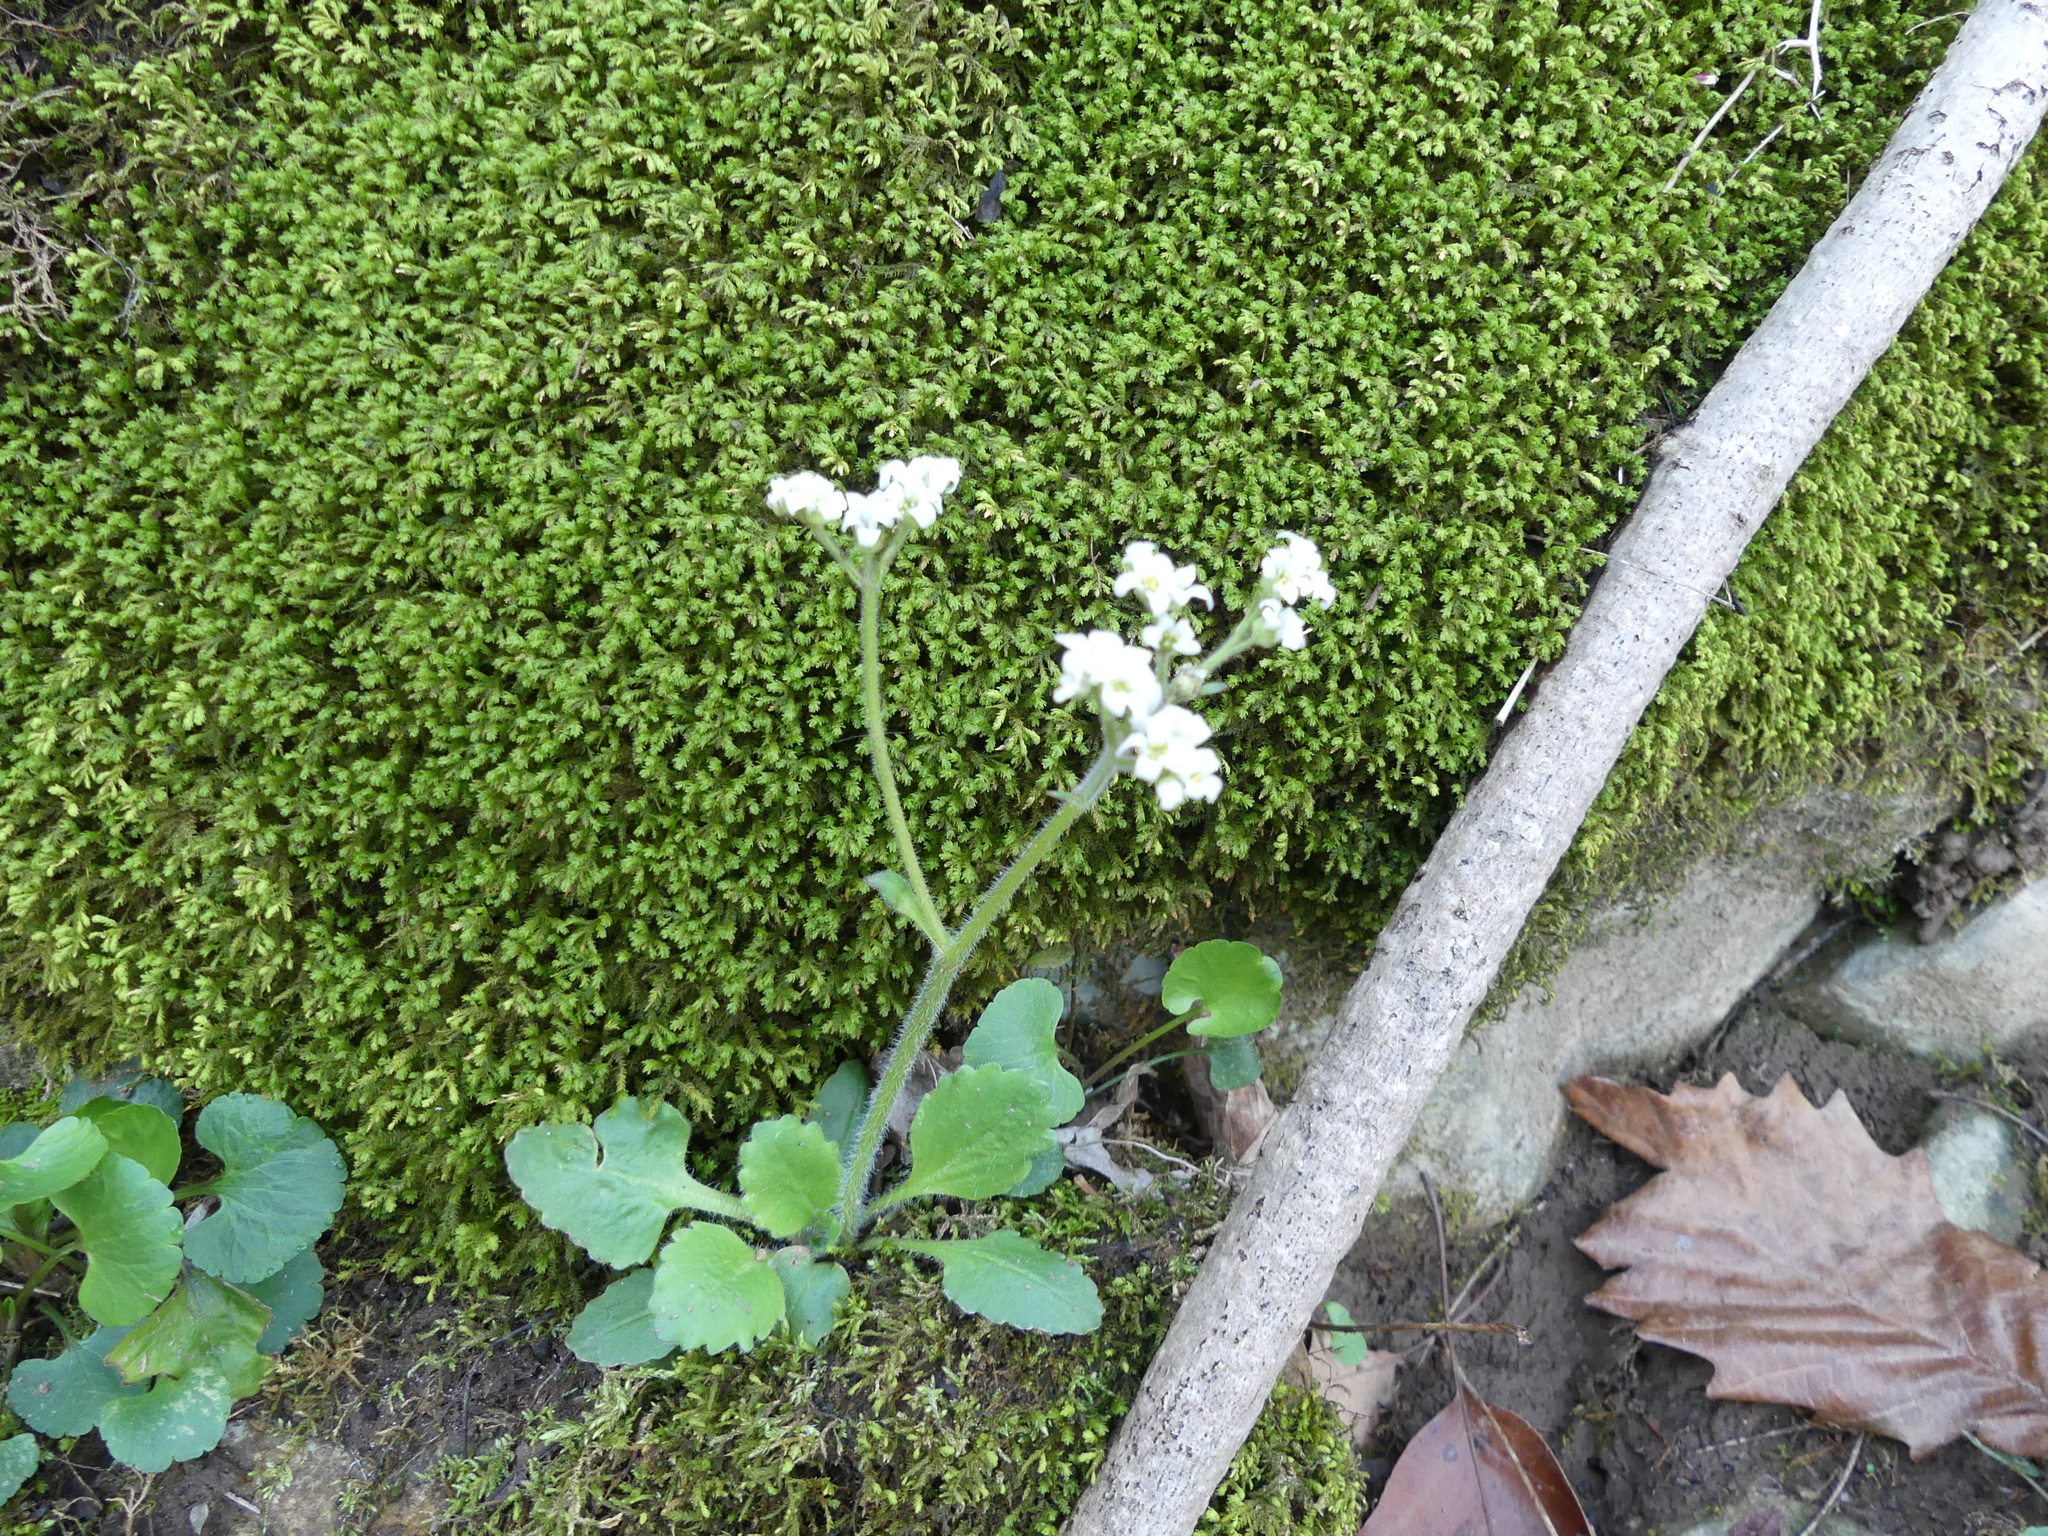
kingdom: Plantae
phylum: Tracheophyta
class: Magnoliopsida
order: Saxifragales
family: Saxifragaceae
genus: Micranthes
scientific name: Micranthes virginiensis
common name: Early saxifrage
